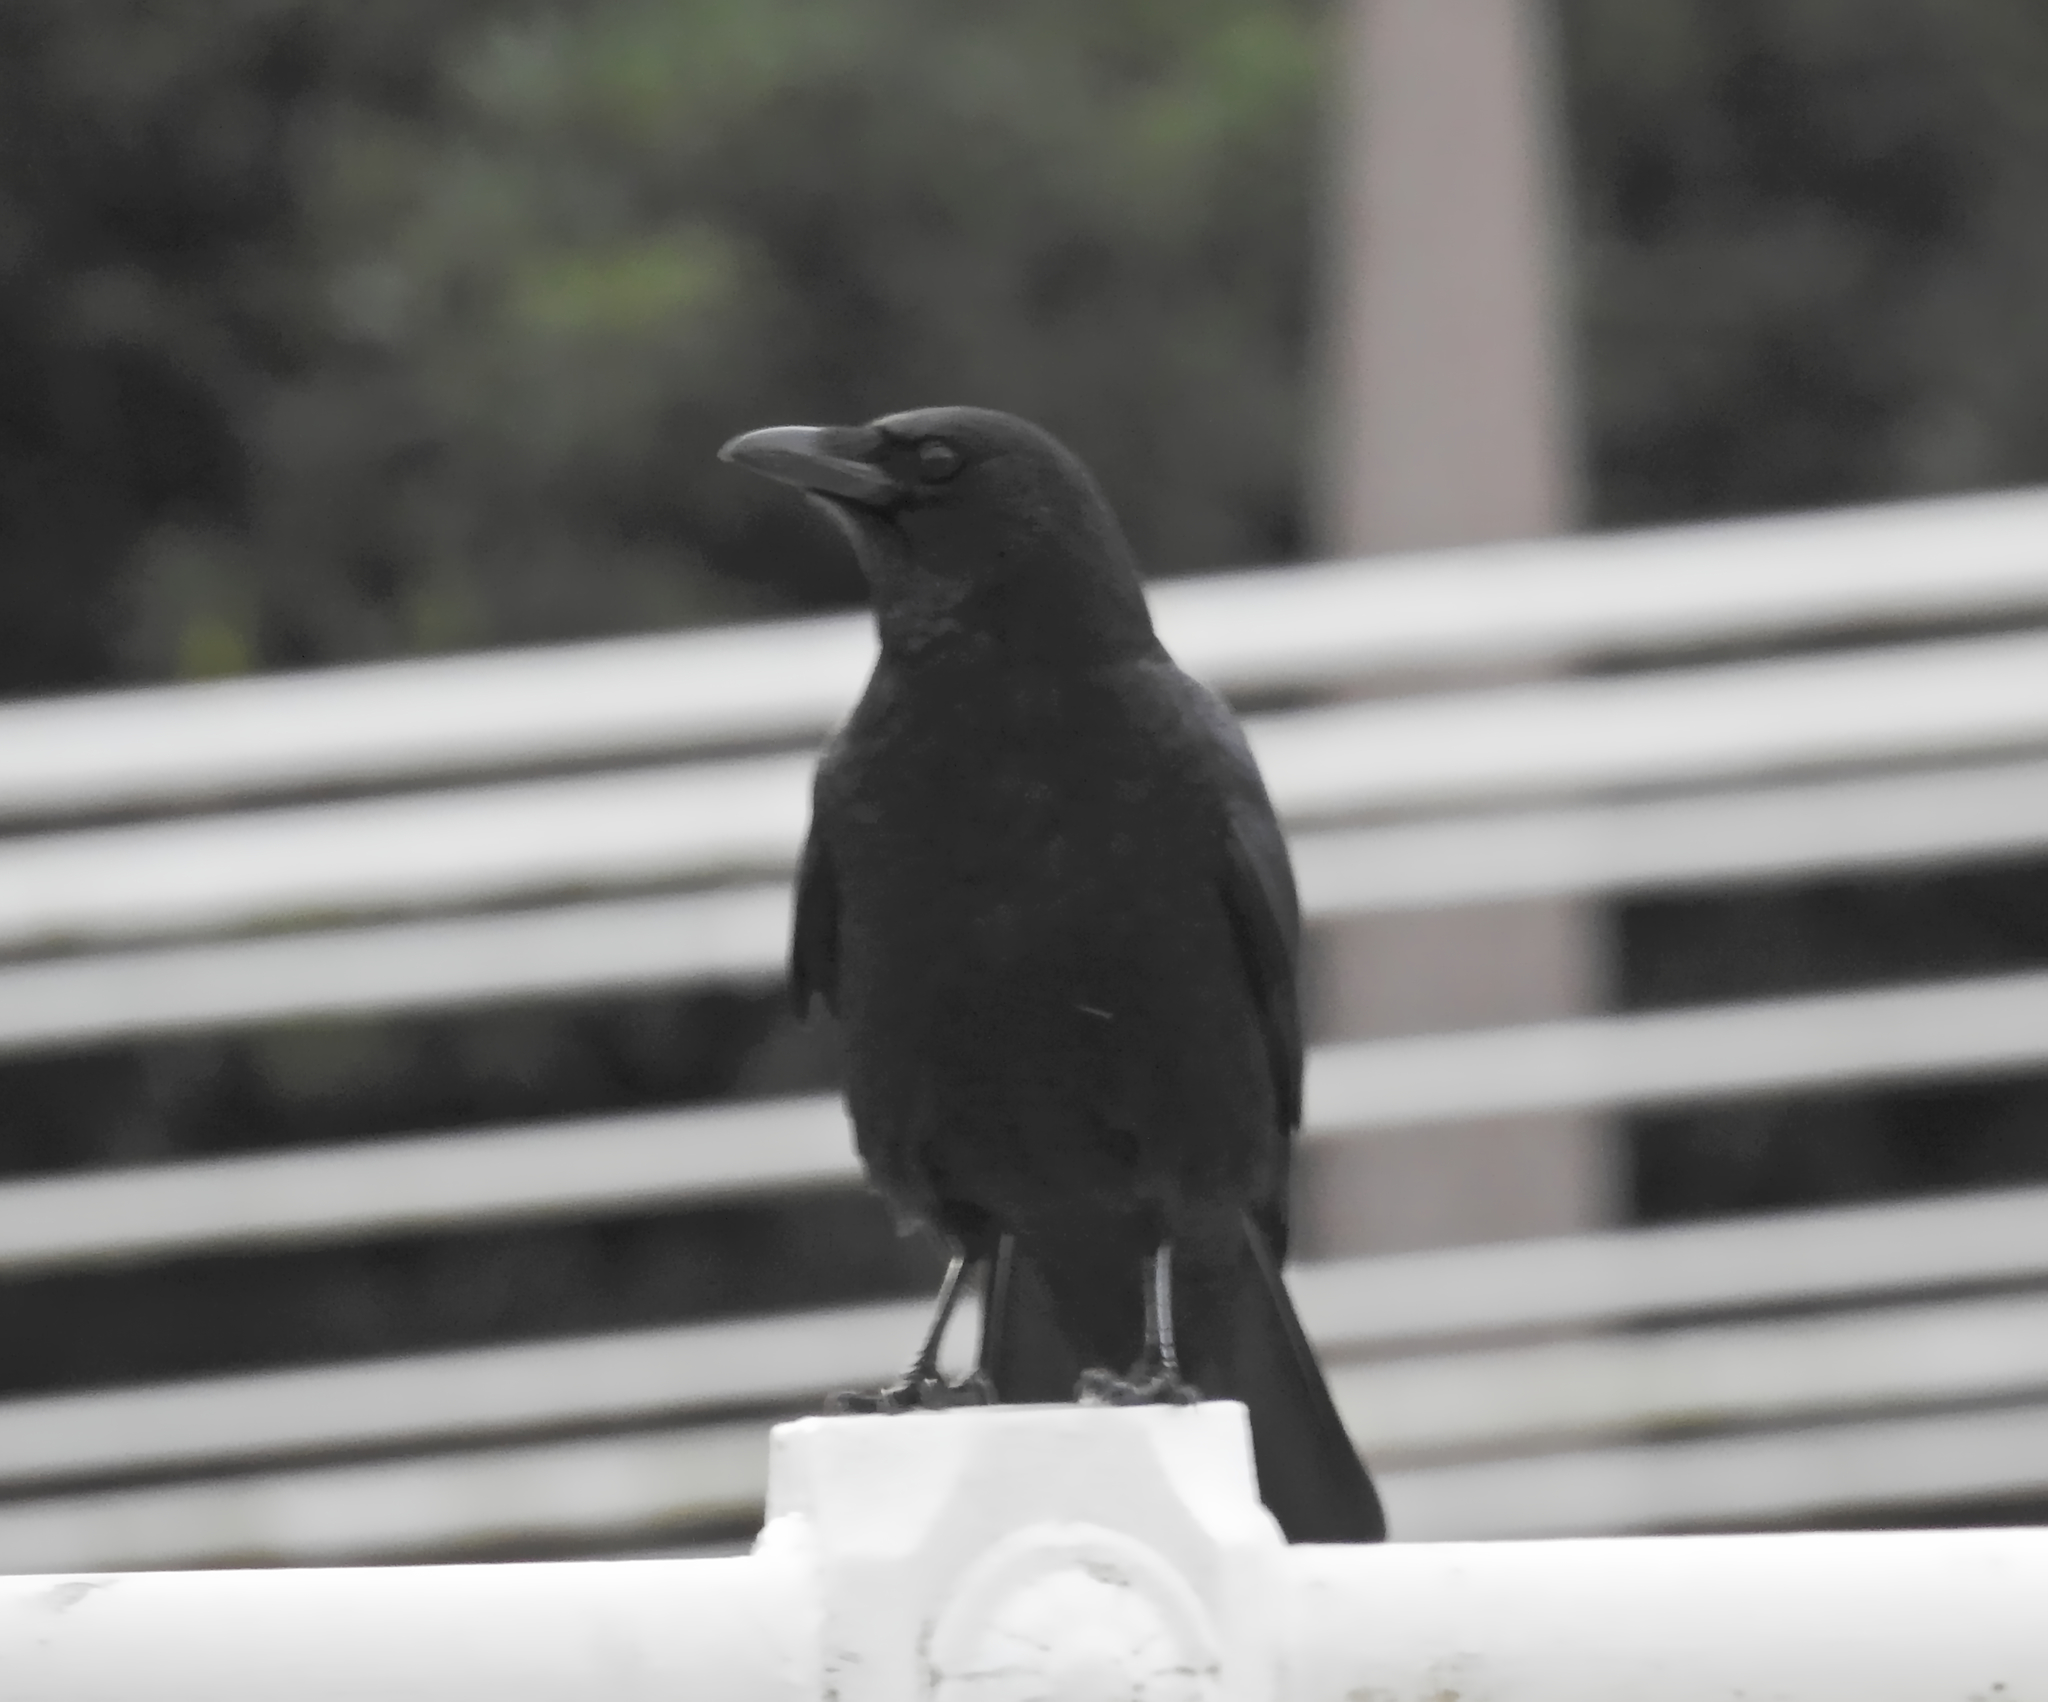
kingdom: Animalia
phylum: Chordata
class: Aves
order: Passeriformes
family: Corvidae
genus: Corvus
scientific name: Corvus corone
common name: Carrion crow
